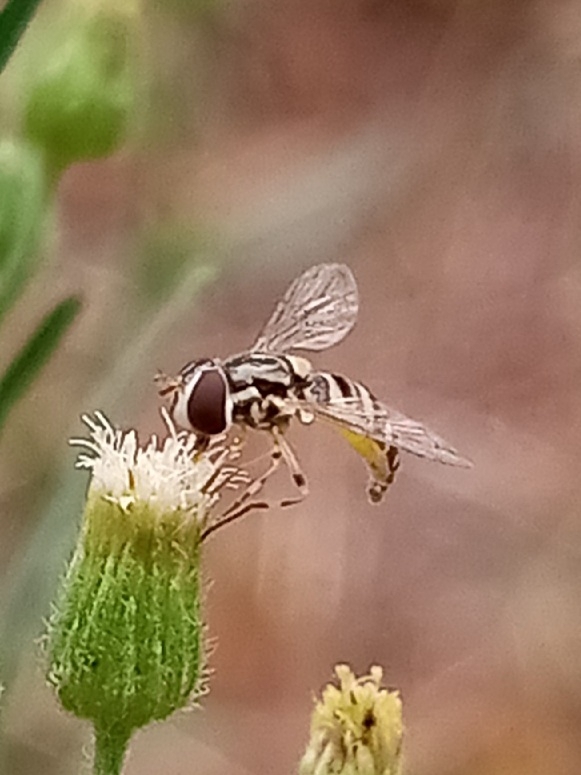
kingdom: Animalia
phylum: Arthropoda
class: Insecta
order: Diptera
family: Syrphidae
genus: Allograpta
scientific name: Allograpta exotica
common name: Syrphid fly
